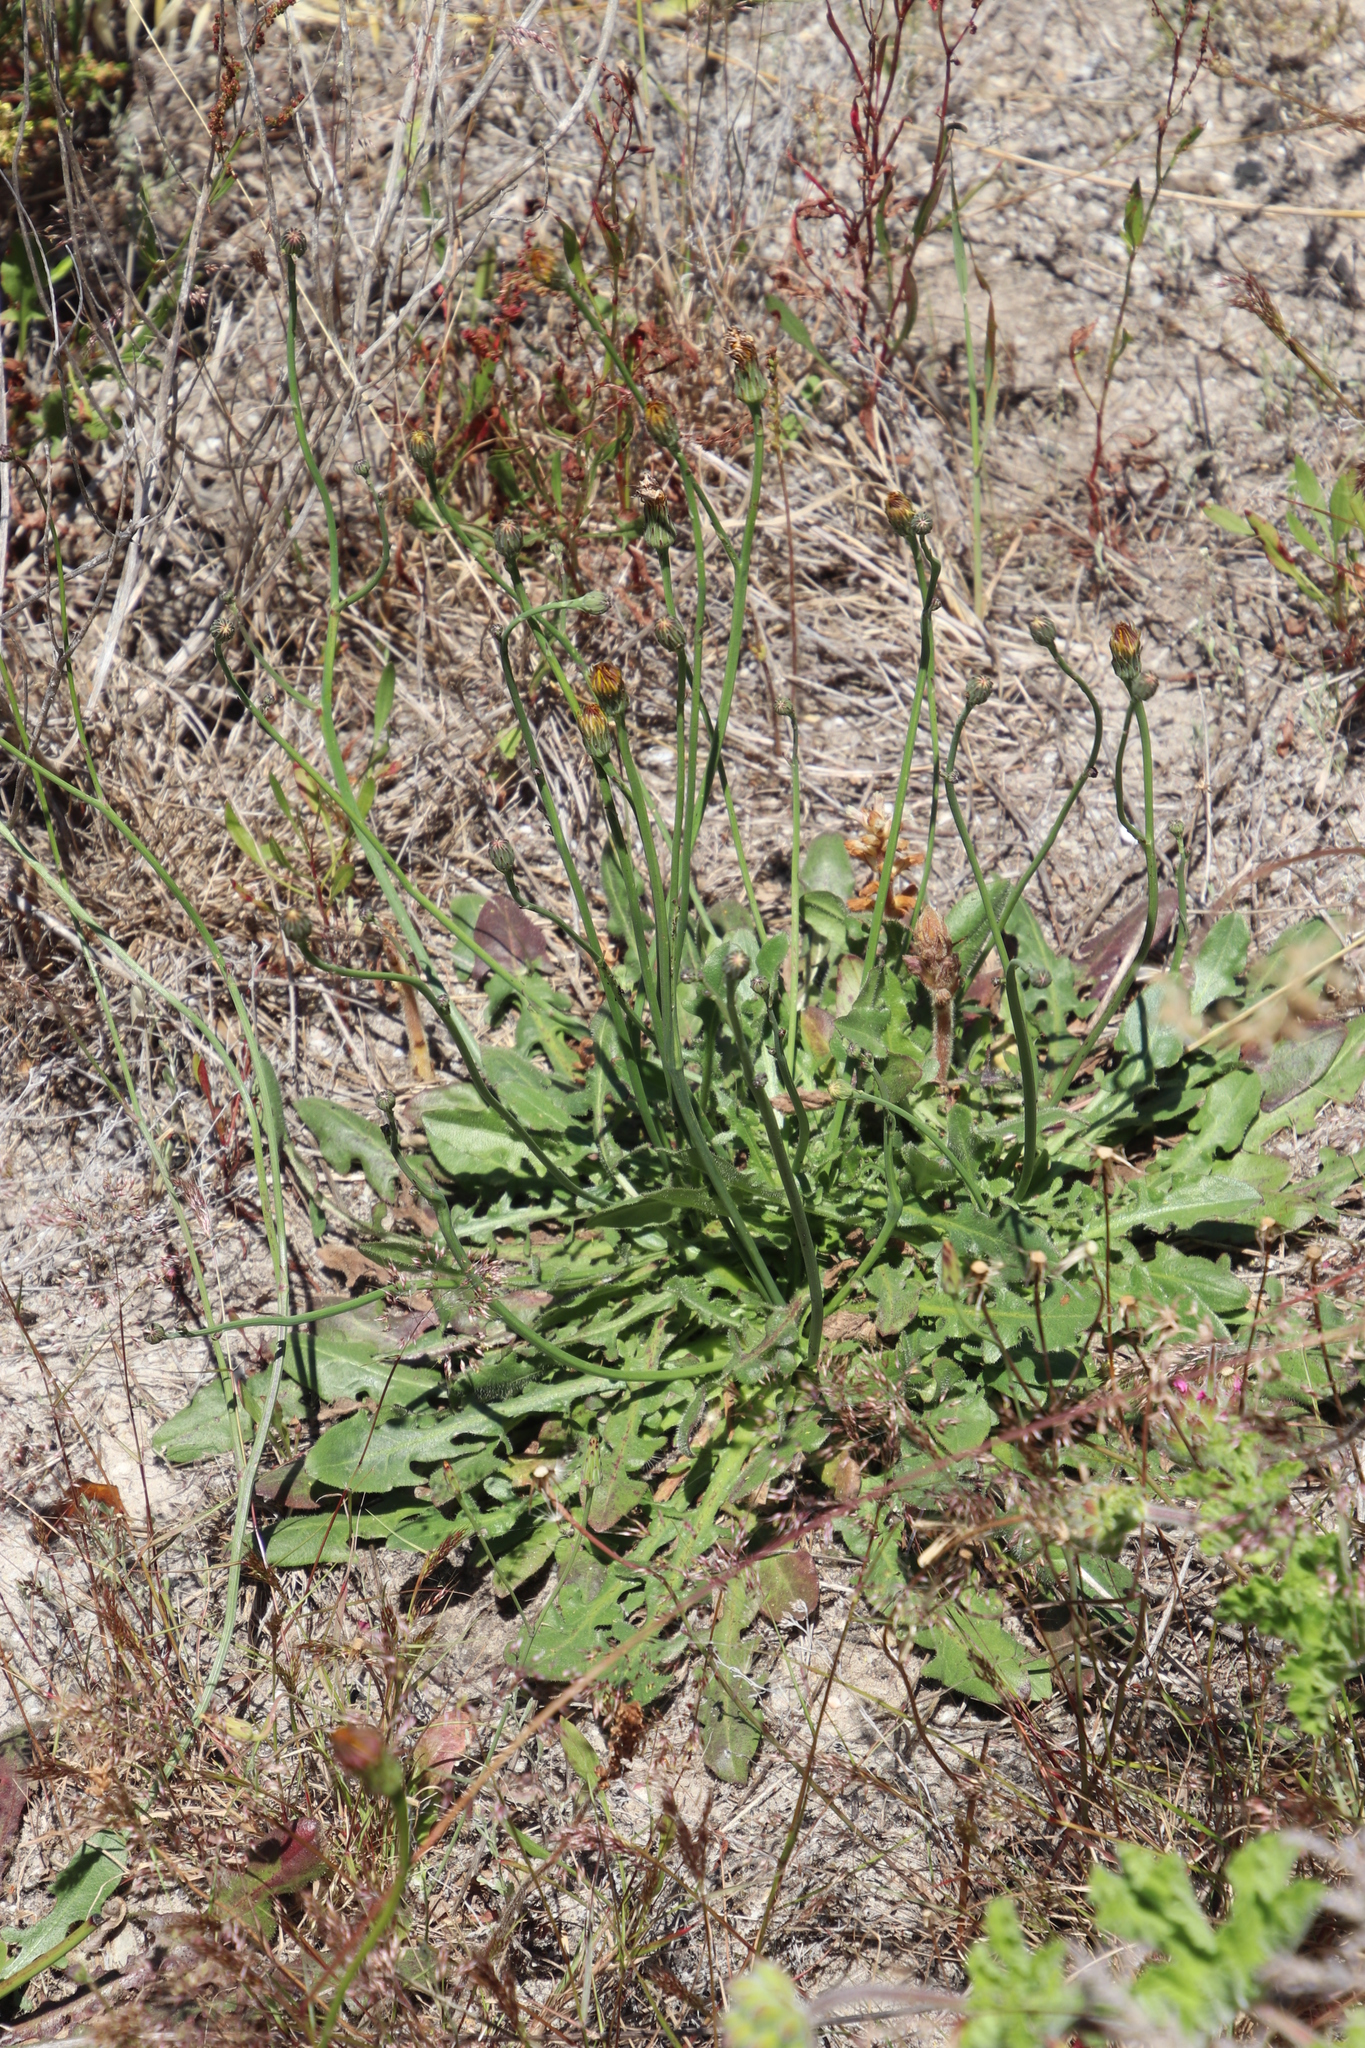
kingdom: Plantae
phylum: Tracheophyta
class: Magnoliopsida
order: Asterales
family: Asteraceae
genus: Hypochaeris
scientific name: Hypochaeris radicata
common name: Flatweed
